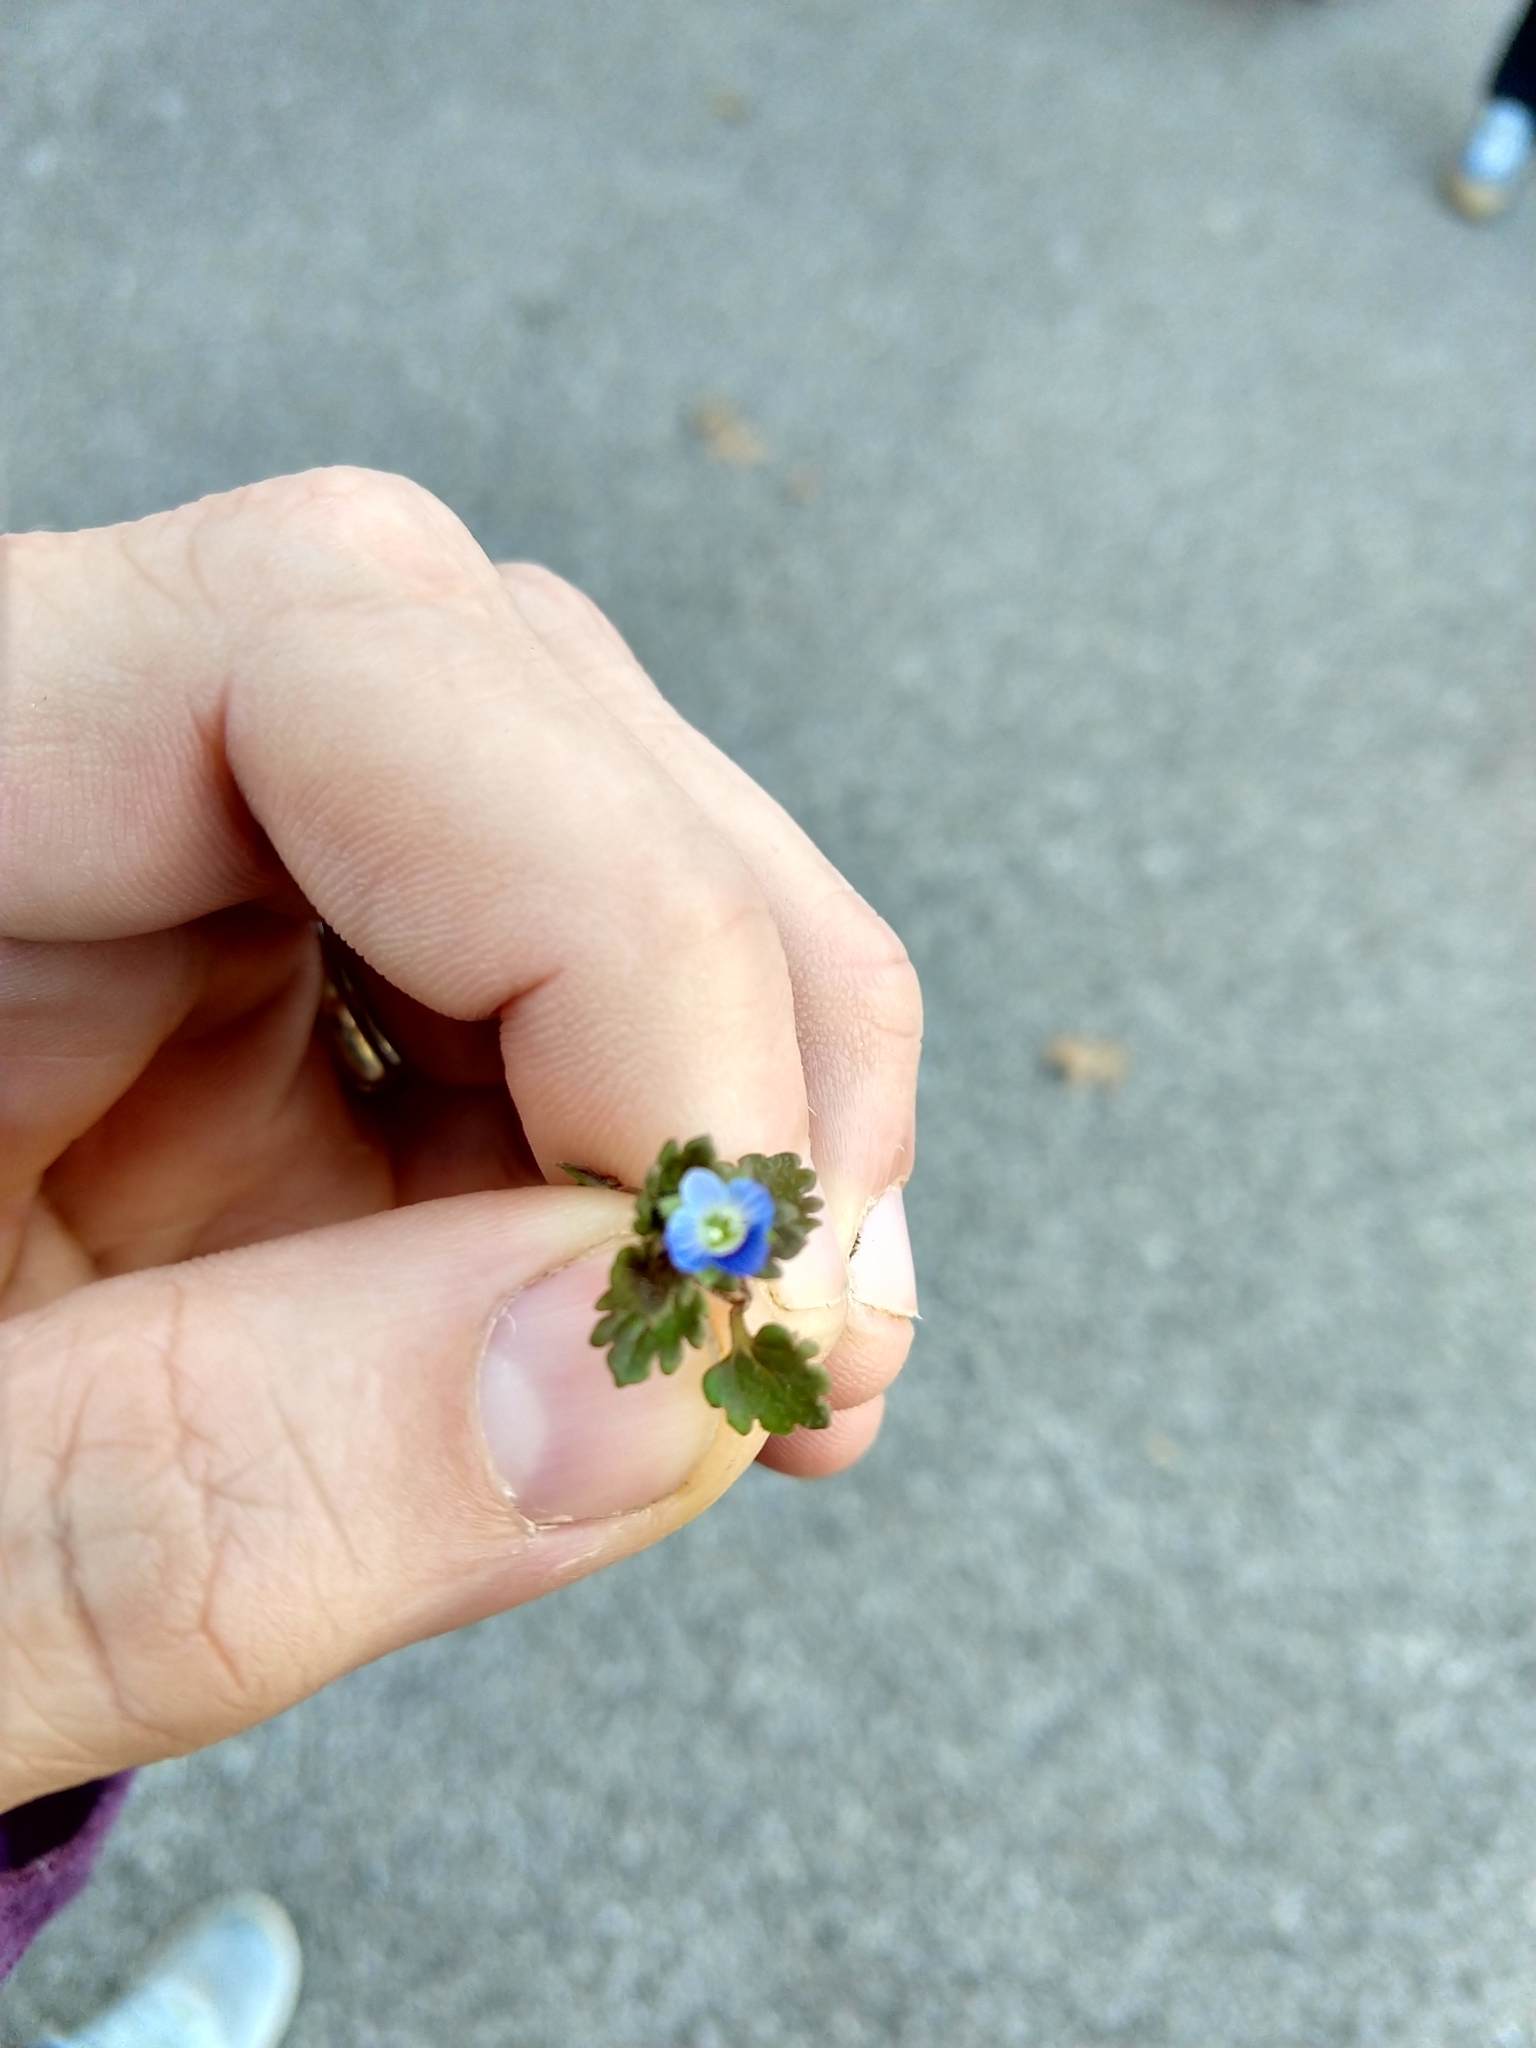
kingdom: Plantae
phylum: Tracheophyta
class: Magnoliopsida
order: Lamiales
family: Plantaginaceae
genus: Veronica
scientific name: Veronica persica
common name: Common field-speedwell
